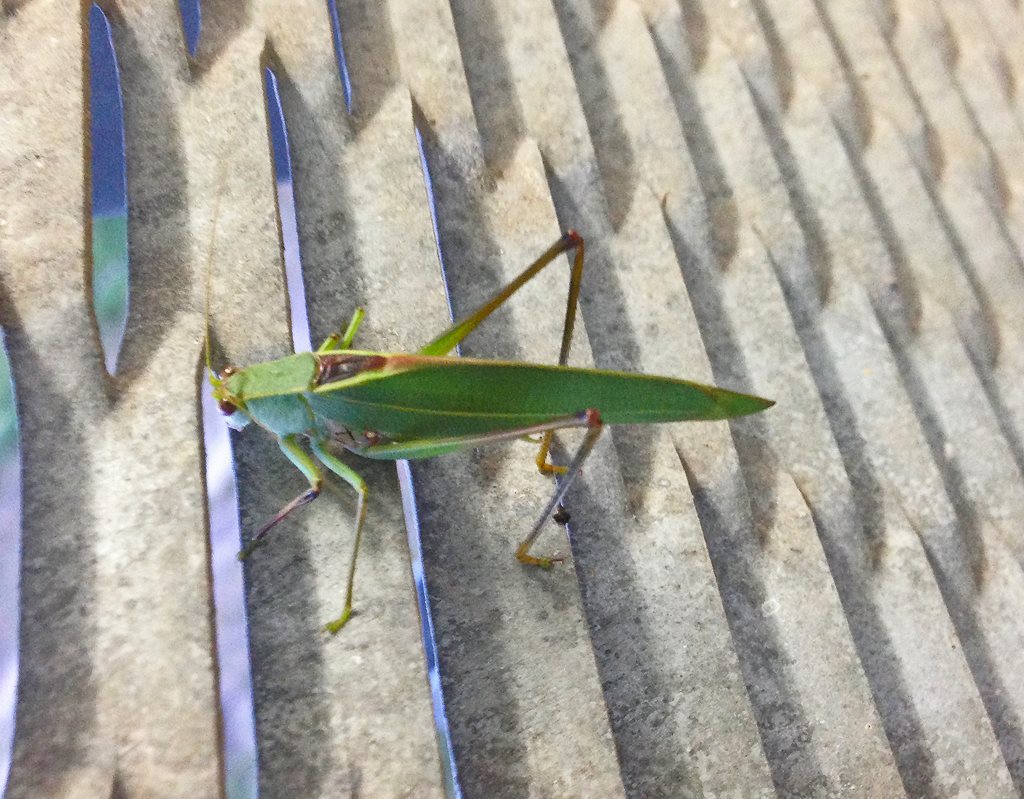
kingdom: Animalia
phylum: Arthropoda
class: Insecta
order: Orthoptera
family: Tettigoniidae
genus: Torbia
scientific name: Torbia viridissima
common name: Non-predaceous gum leaf katydid
